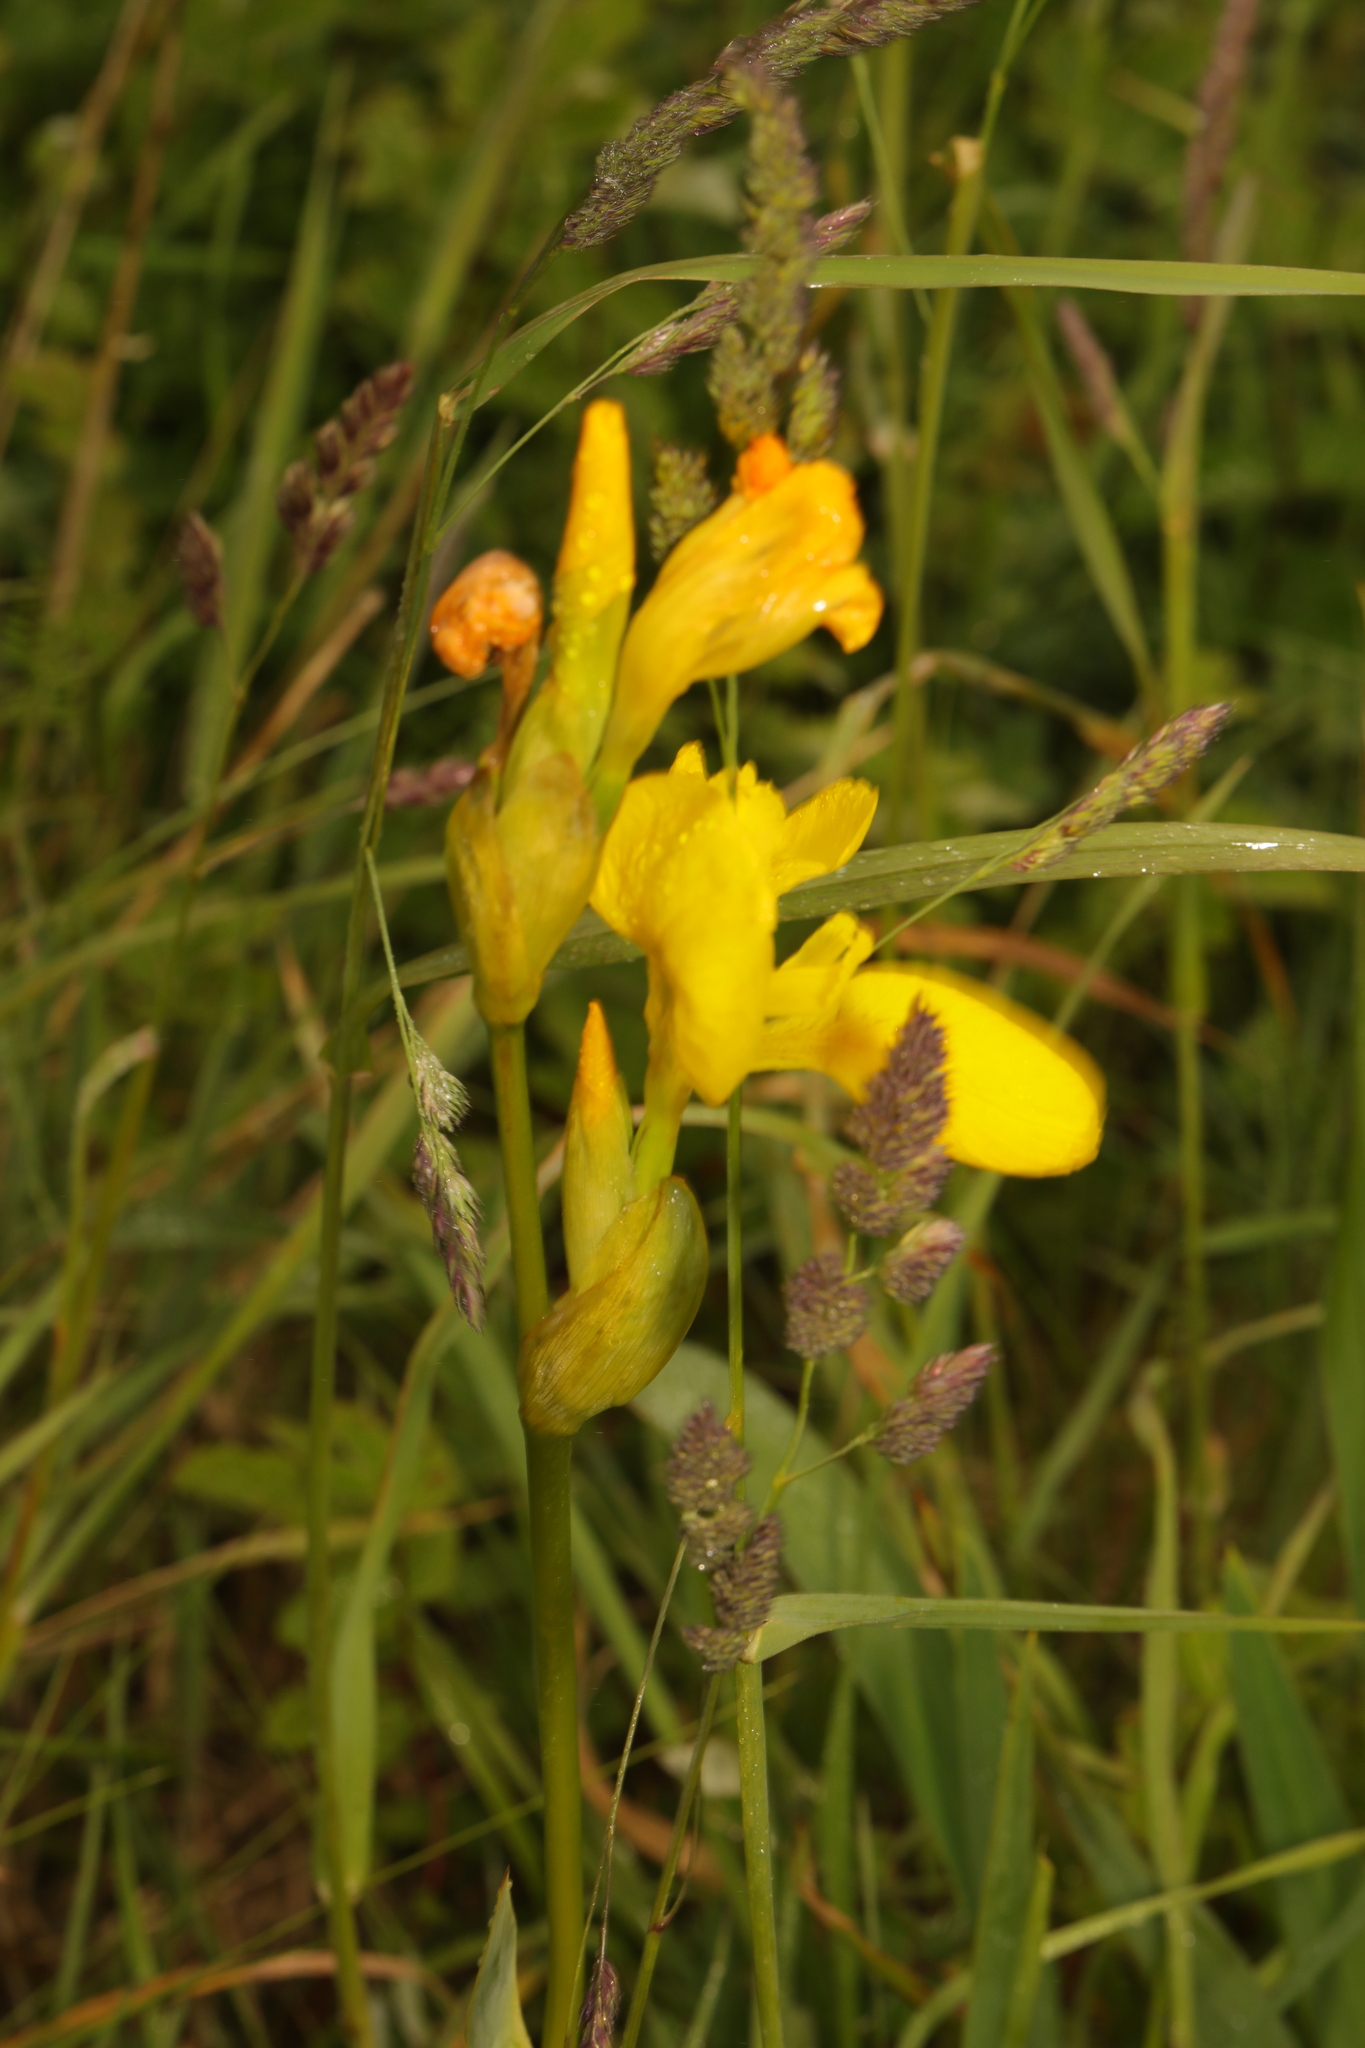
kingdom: Plantae
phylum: Tracheophyta
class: Liliopsida
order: Asparagales
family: Iridaceae
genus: Iris
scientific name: Iris pseudacorus
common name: Yellow flag
